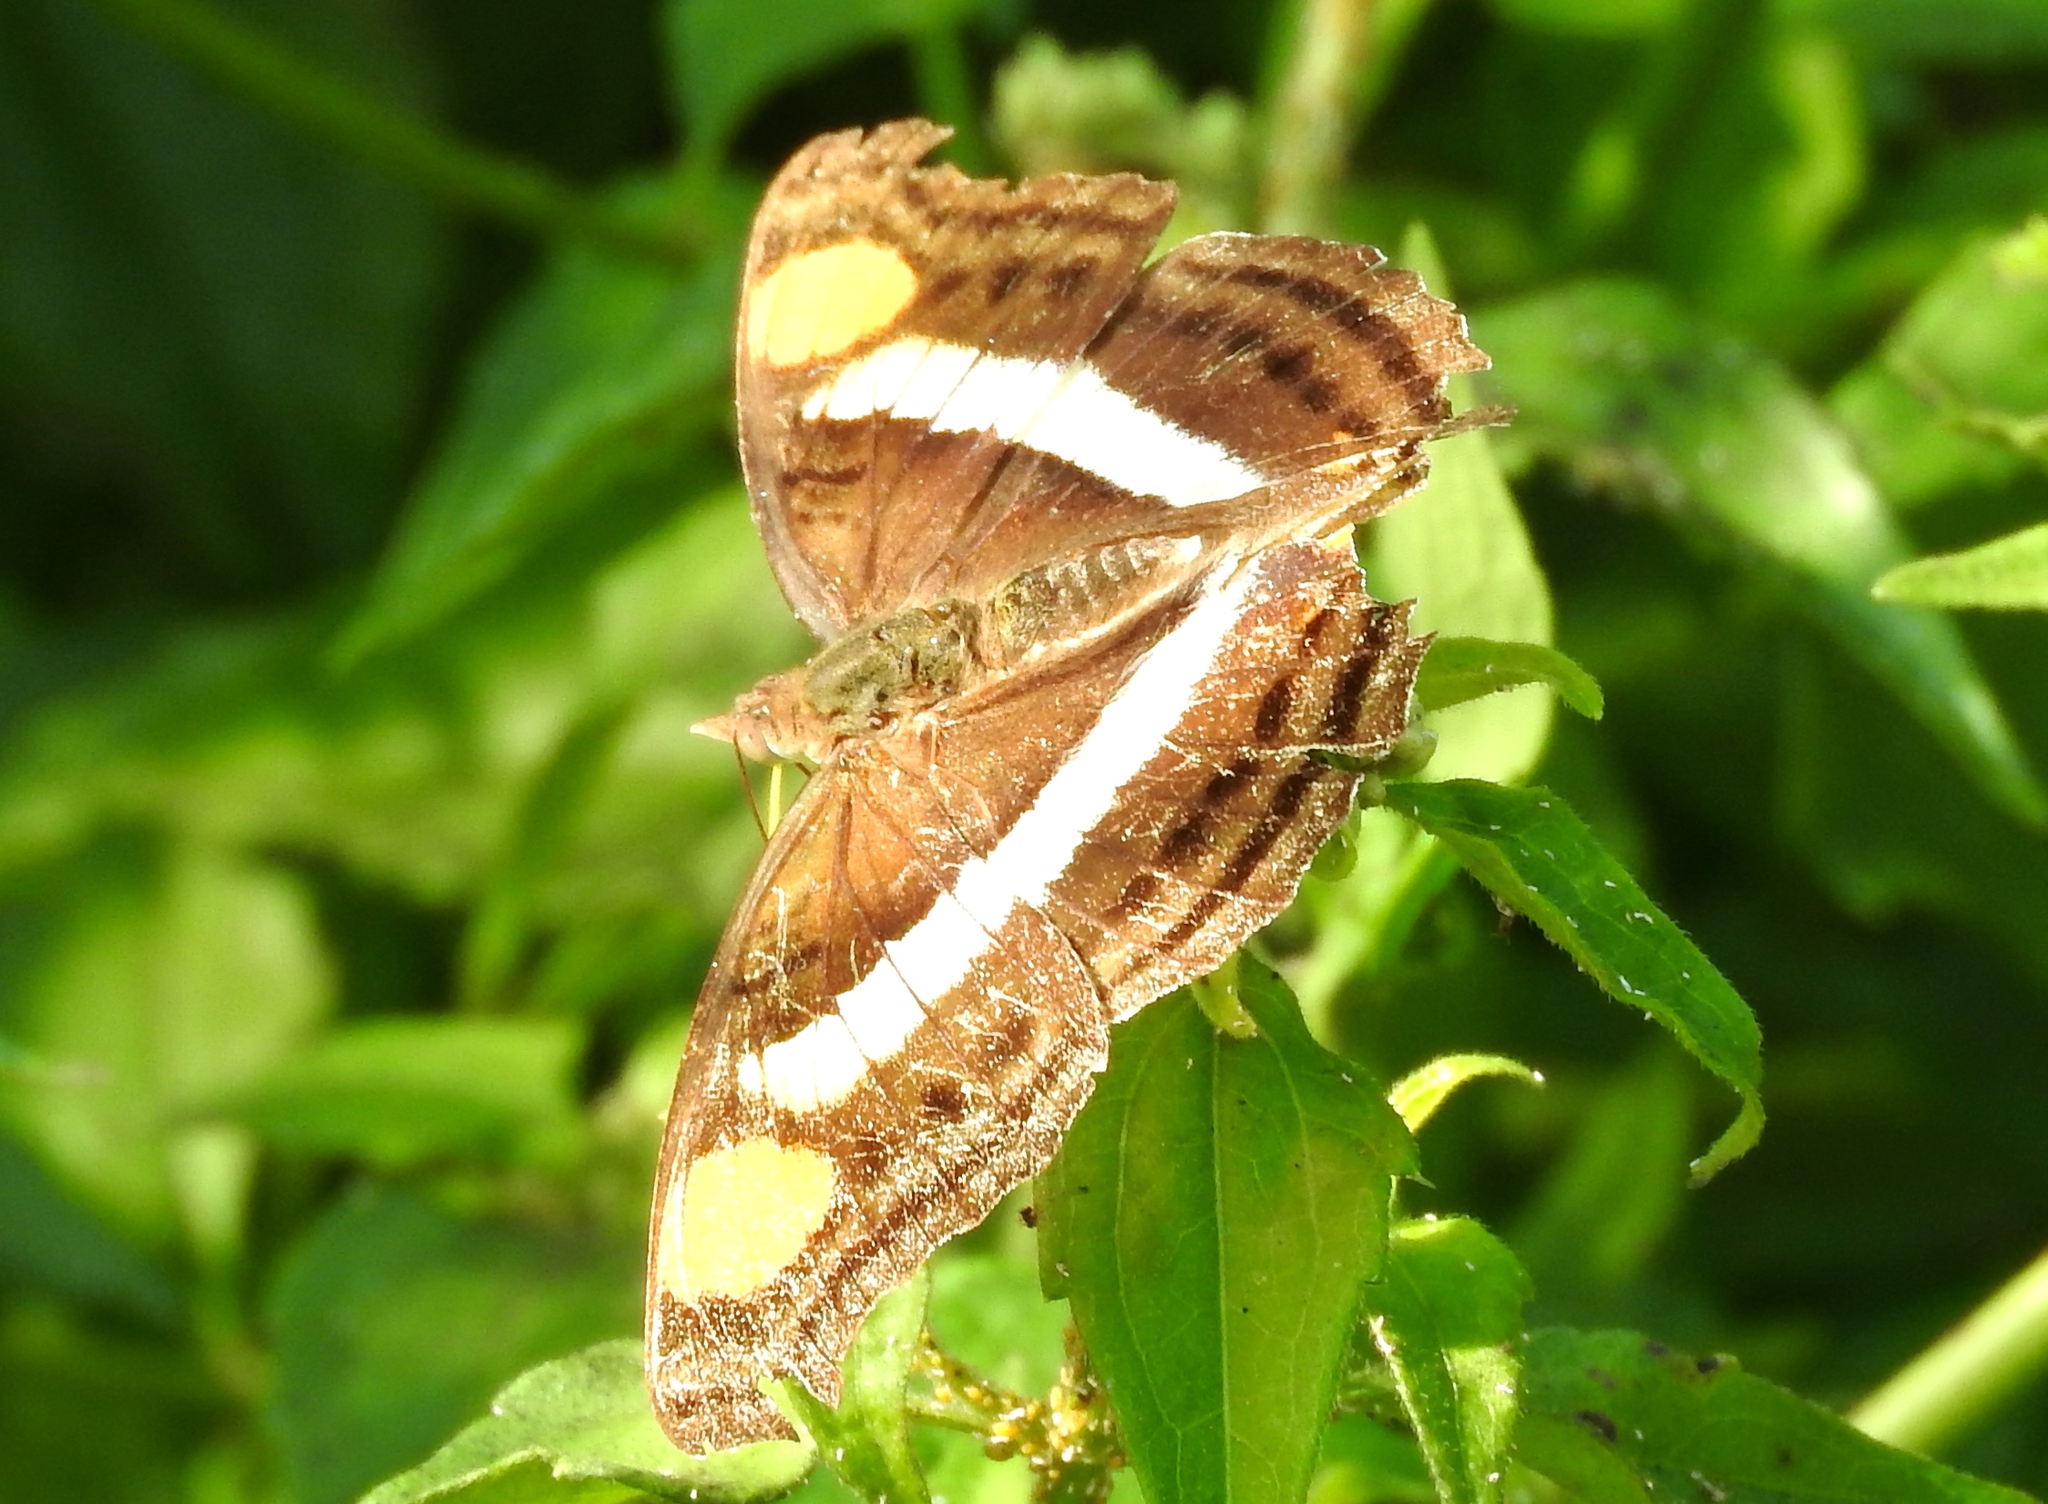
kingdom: Animalia
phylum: Arthropoda
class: Insecta
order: Lepidoptera
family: Nymphalidae
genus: Doxocopa
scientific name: Doxocopa laure
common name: Silver emperor
